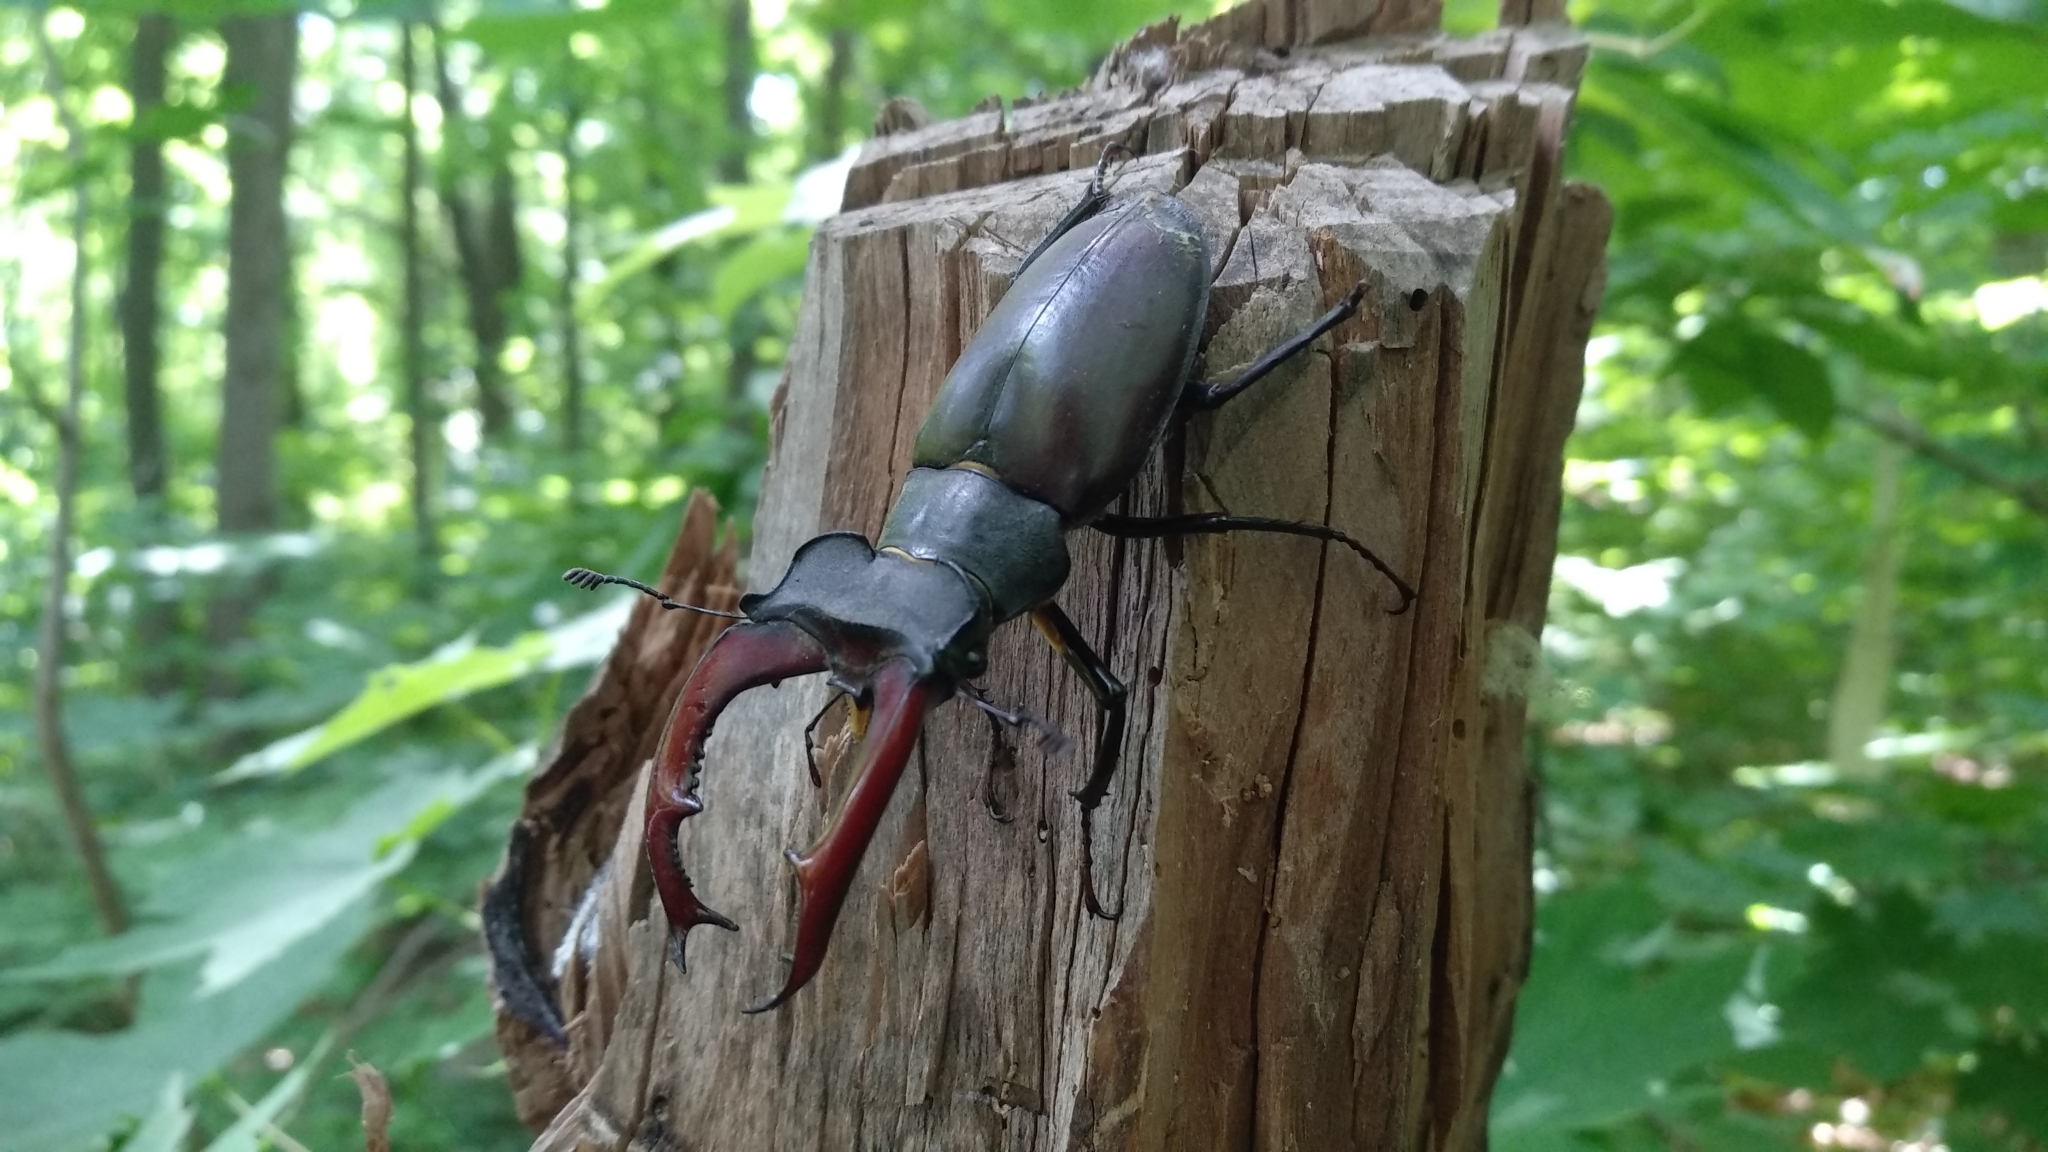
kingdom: Animalia
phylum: Arthropoda
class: Insecta
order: Coleoptera
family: Lucanidae
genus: Lucanus
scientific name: Lucanus cervus
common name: Stag beetle
